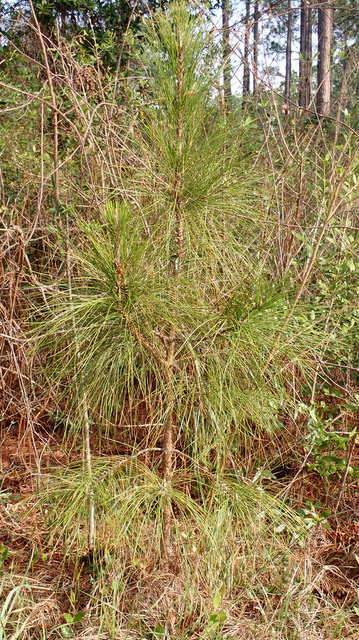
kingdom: Plantae
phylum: Tracheophyta
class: Pinopsida
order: Pinales
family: Pinaceae
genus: Pinus
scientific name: Pinus taeda
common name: Loblolly pine
